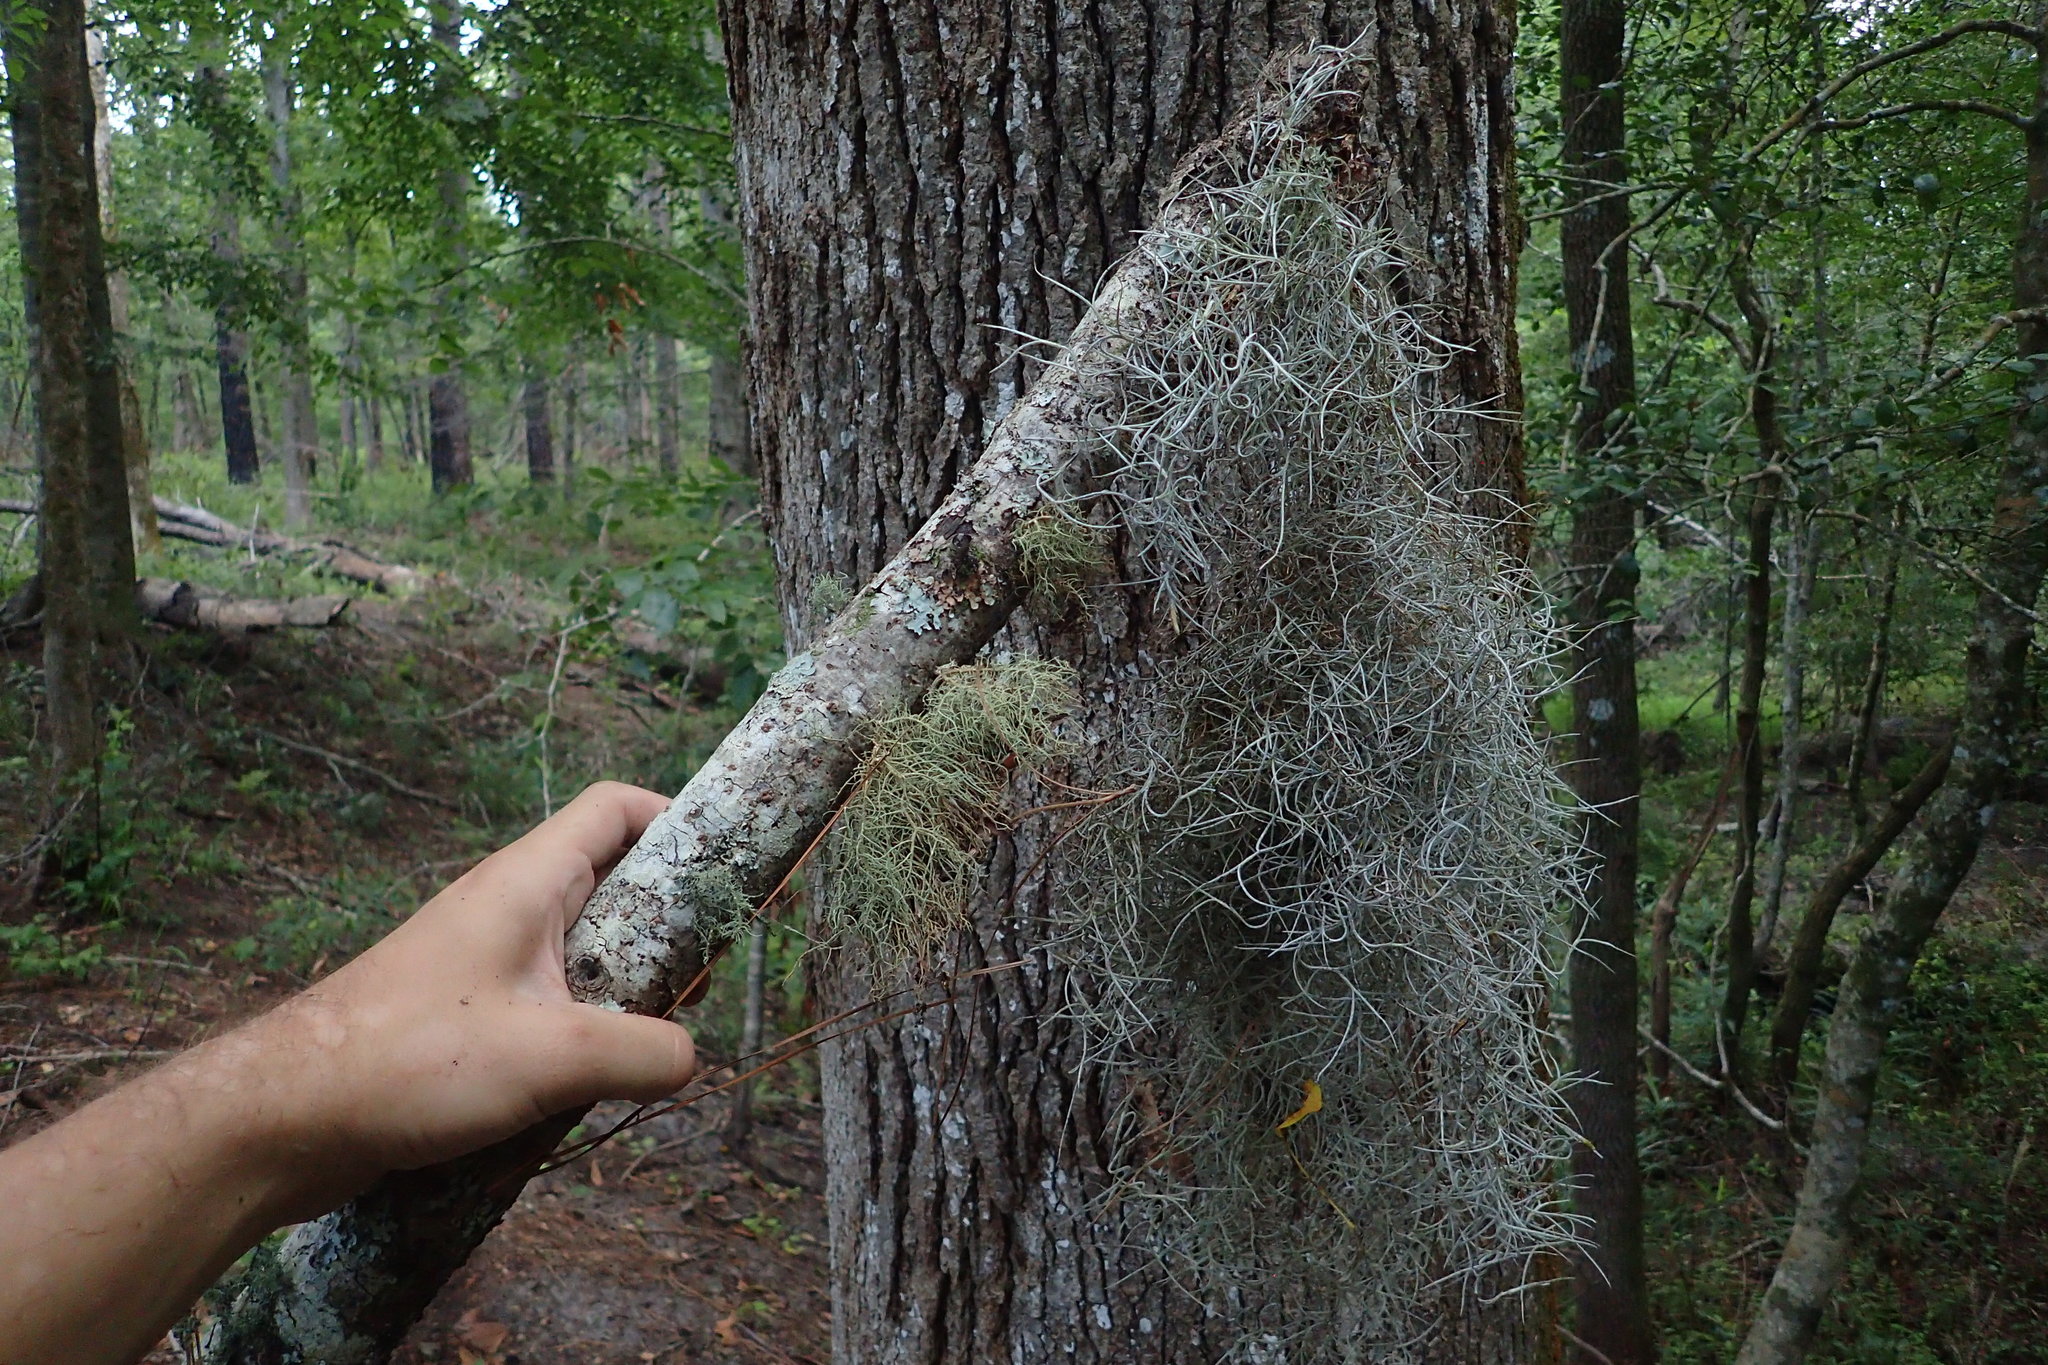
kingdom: Plantae
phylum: Tracheophyta
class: Liliopsida
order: Poales
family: Bromeliaceae
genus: Tillandsia
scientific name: Tillandsia usneoides
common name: Spanish moss
